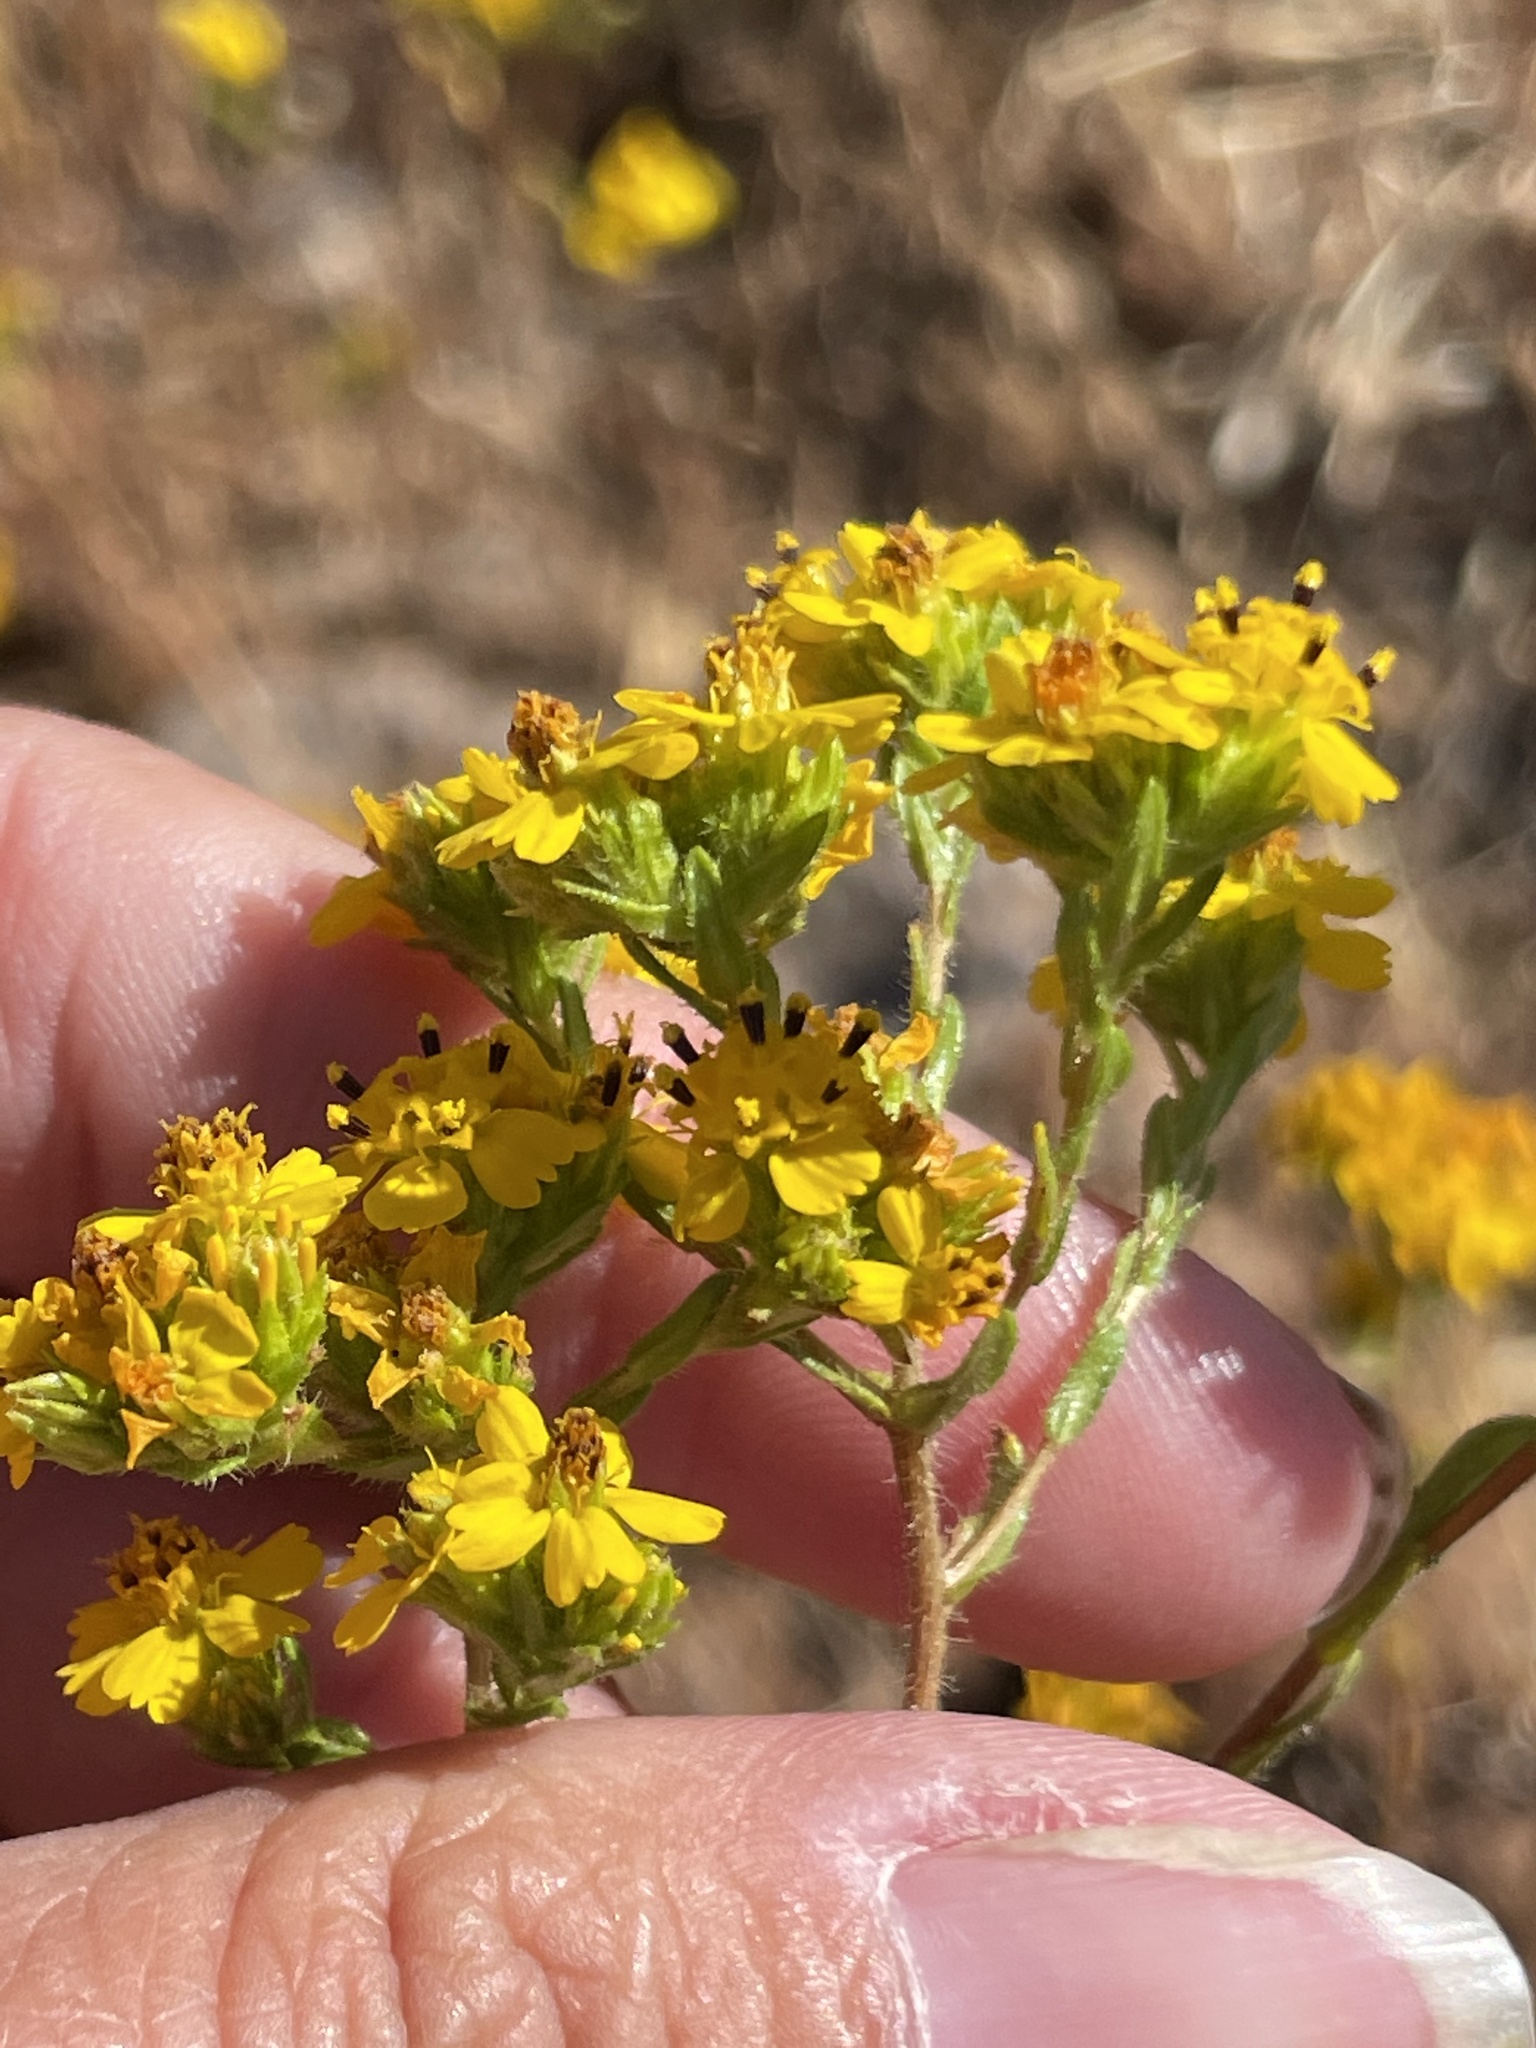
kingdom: Plantae
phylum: Tracheophyta
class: Magnoliopsida
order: Asterales
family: Asteraceae
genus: Deinandra
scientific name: Deinandra fasciculata
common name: Clustered tarweed
